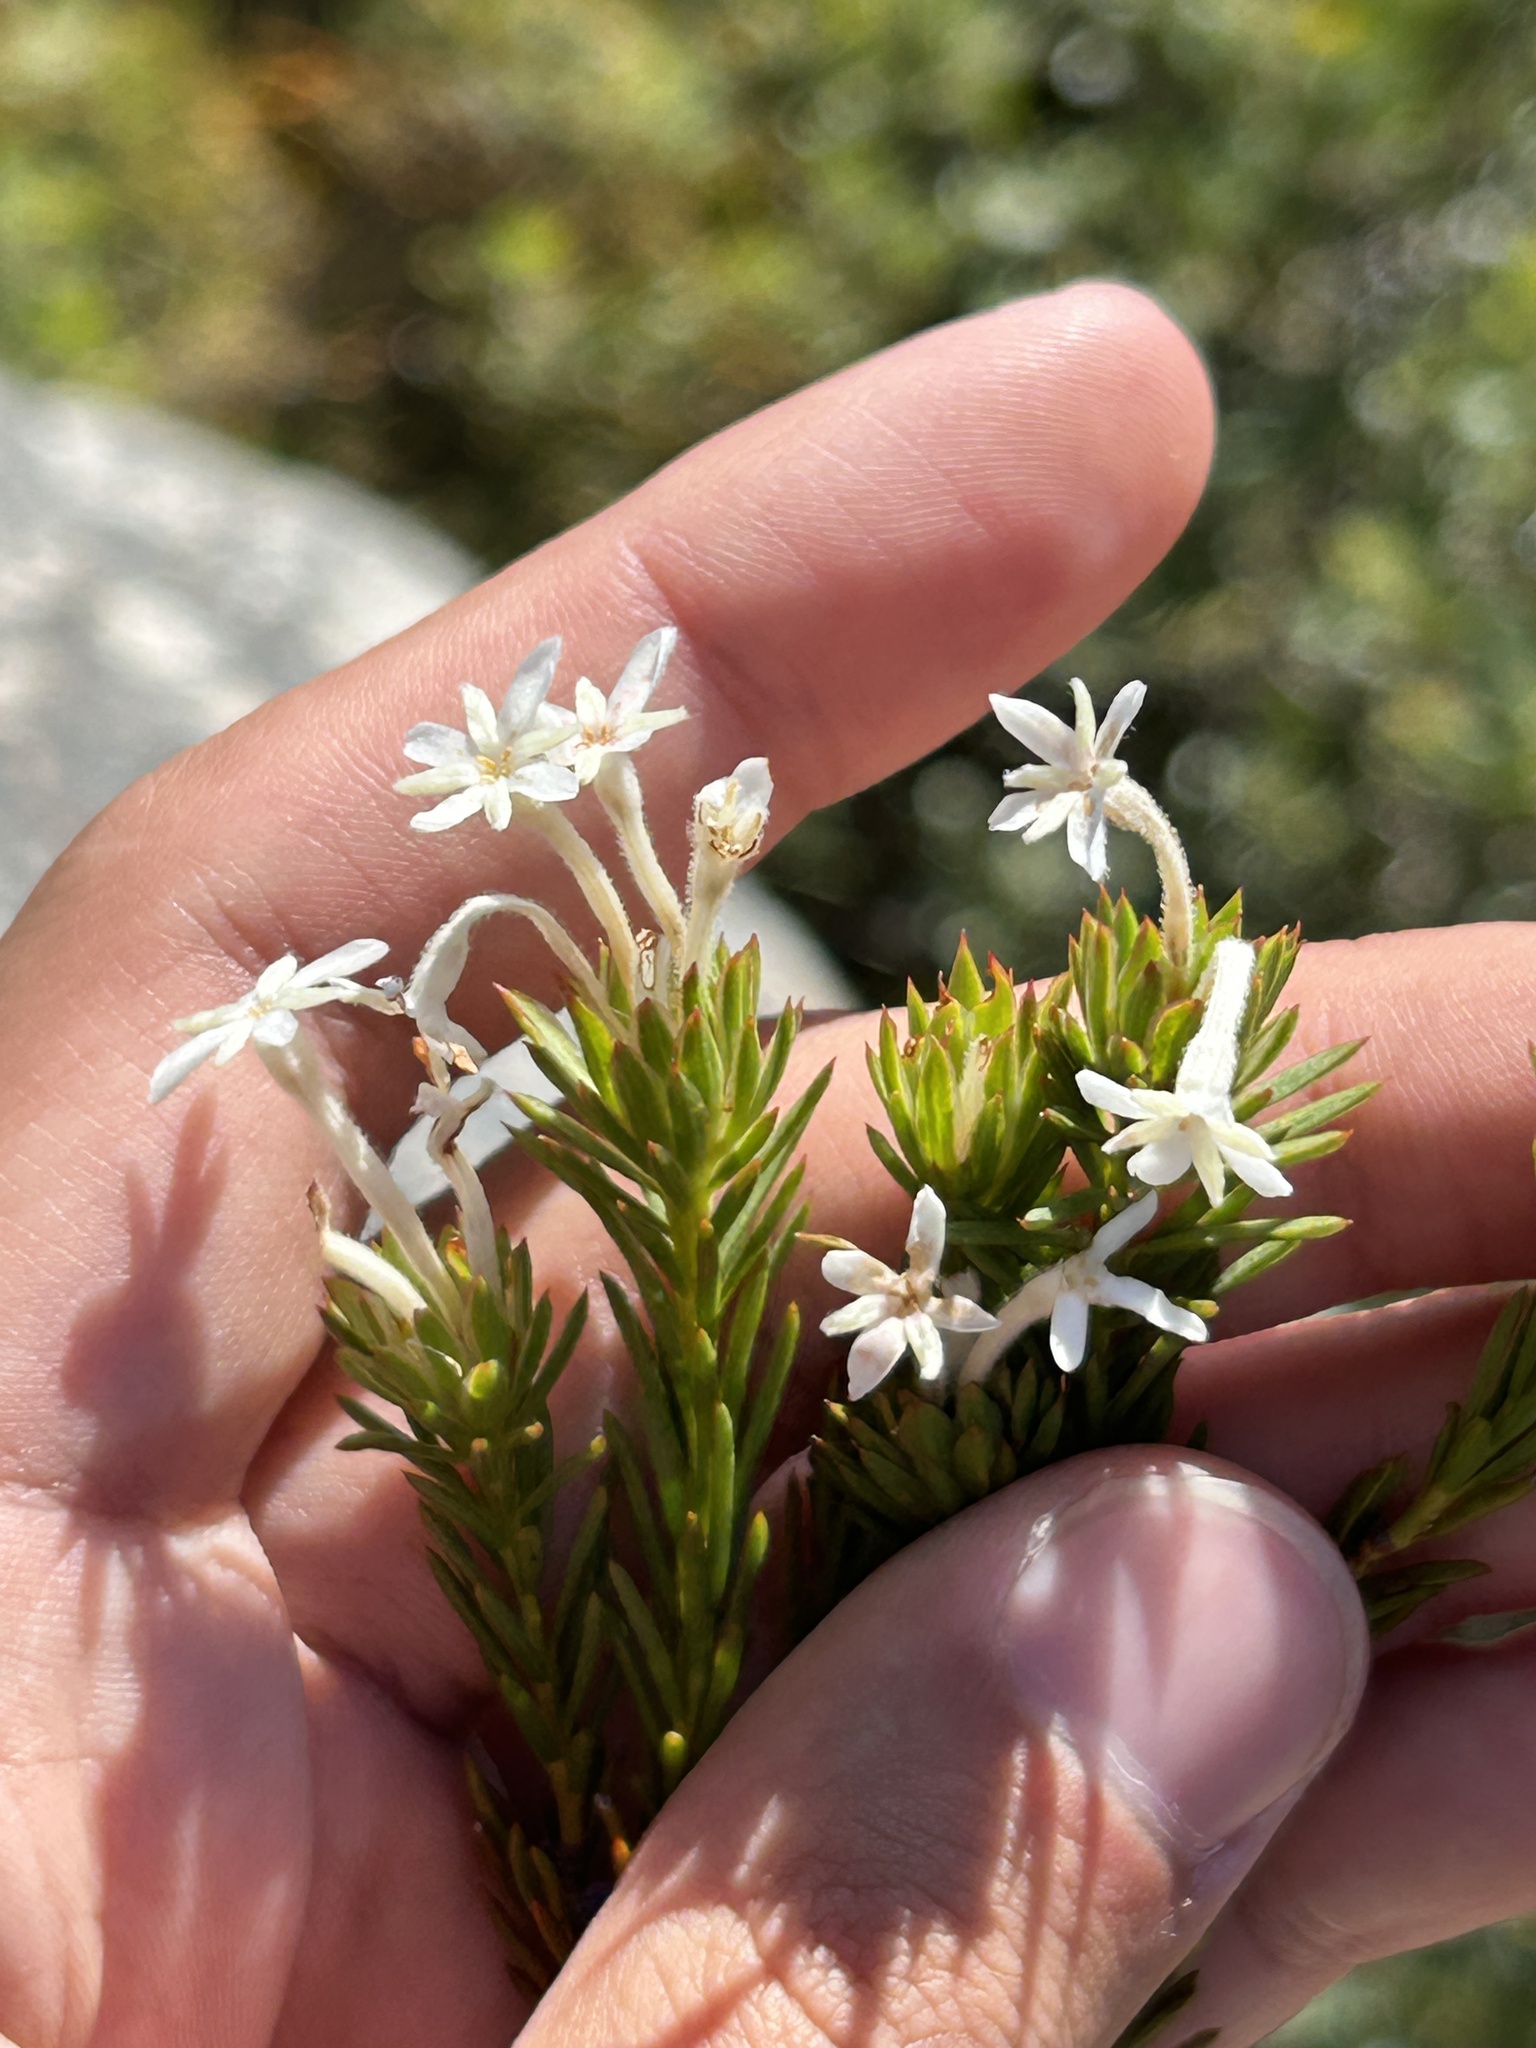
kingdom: Plantae
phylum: Tracheophyta
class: Magnoliopsida
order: Malvales
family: Thymelaeaceae
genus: Gnidia
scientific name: Gnidia pinifolia
